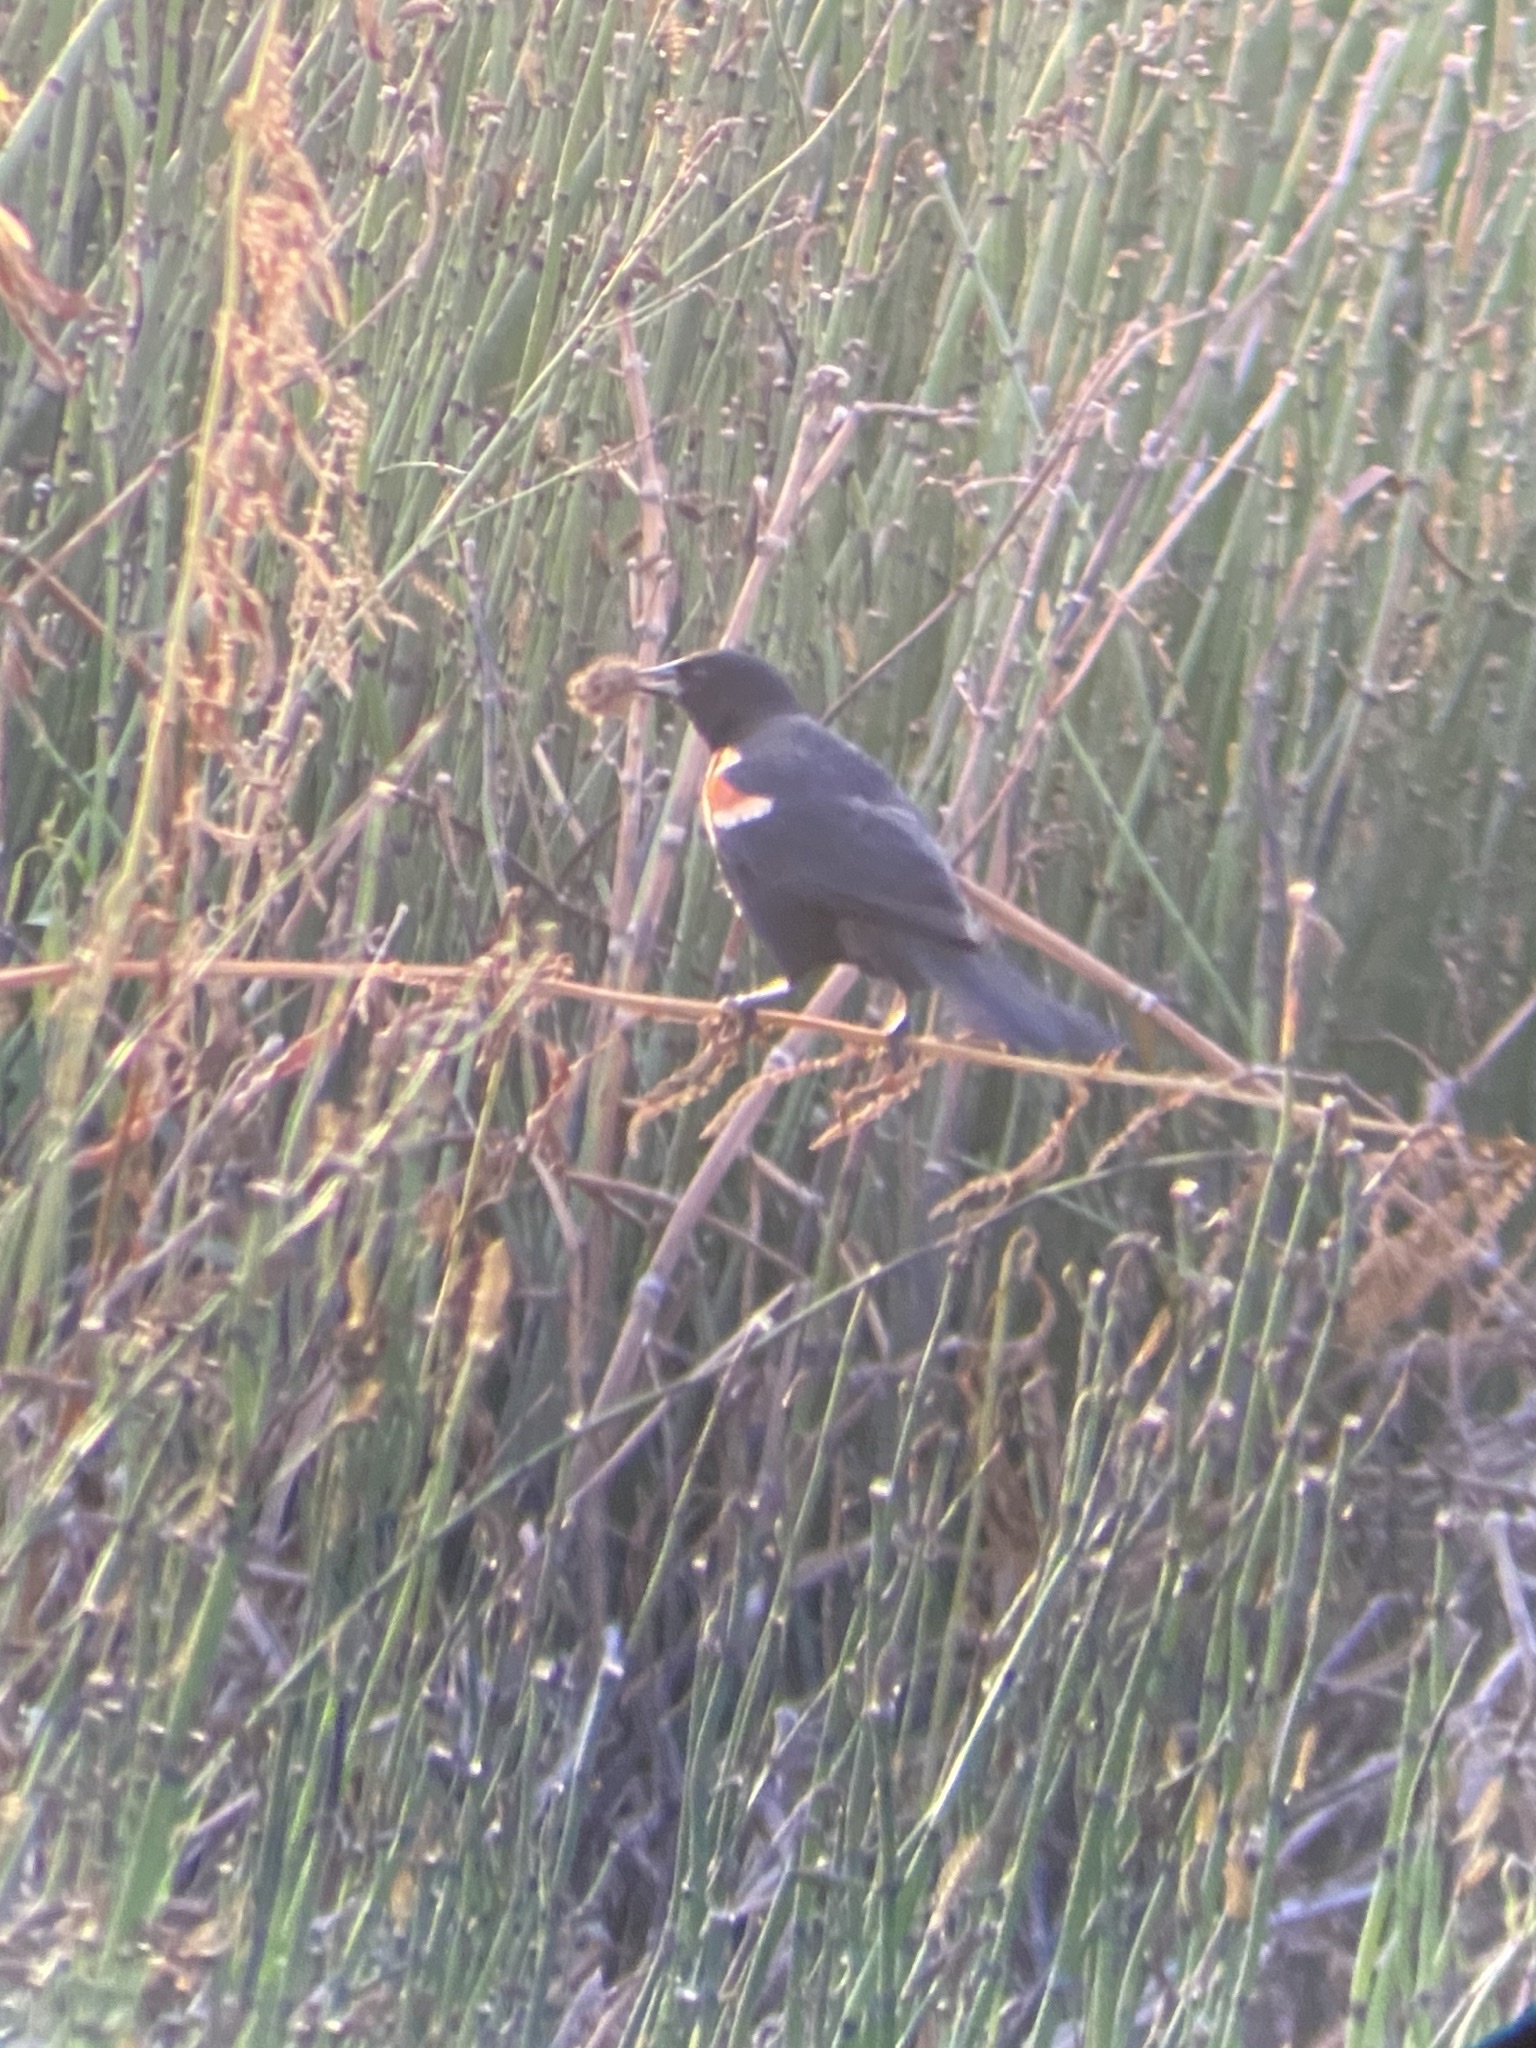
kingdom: Animalia
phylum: Chordata
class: Aves
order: Passeriformes
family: Icteridae
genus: Agelaius
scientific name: Agelaius phoeniceus
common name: Red-winged blackbird
